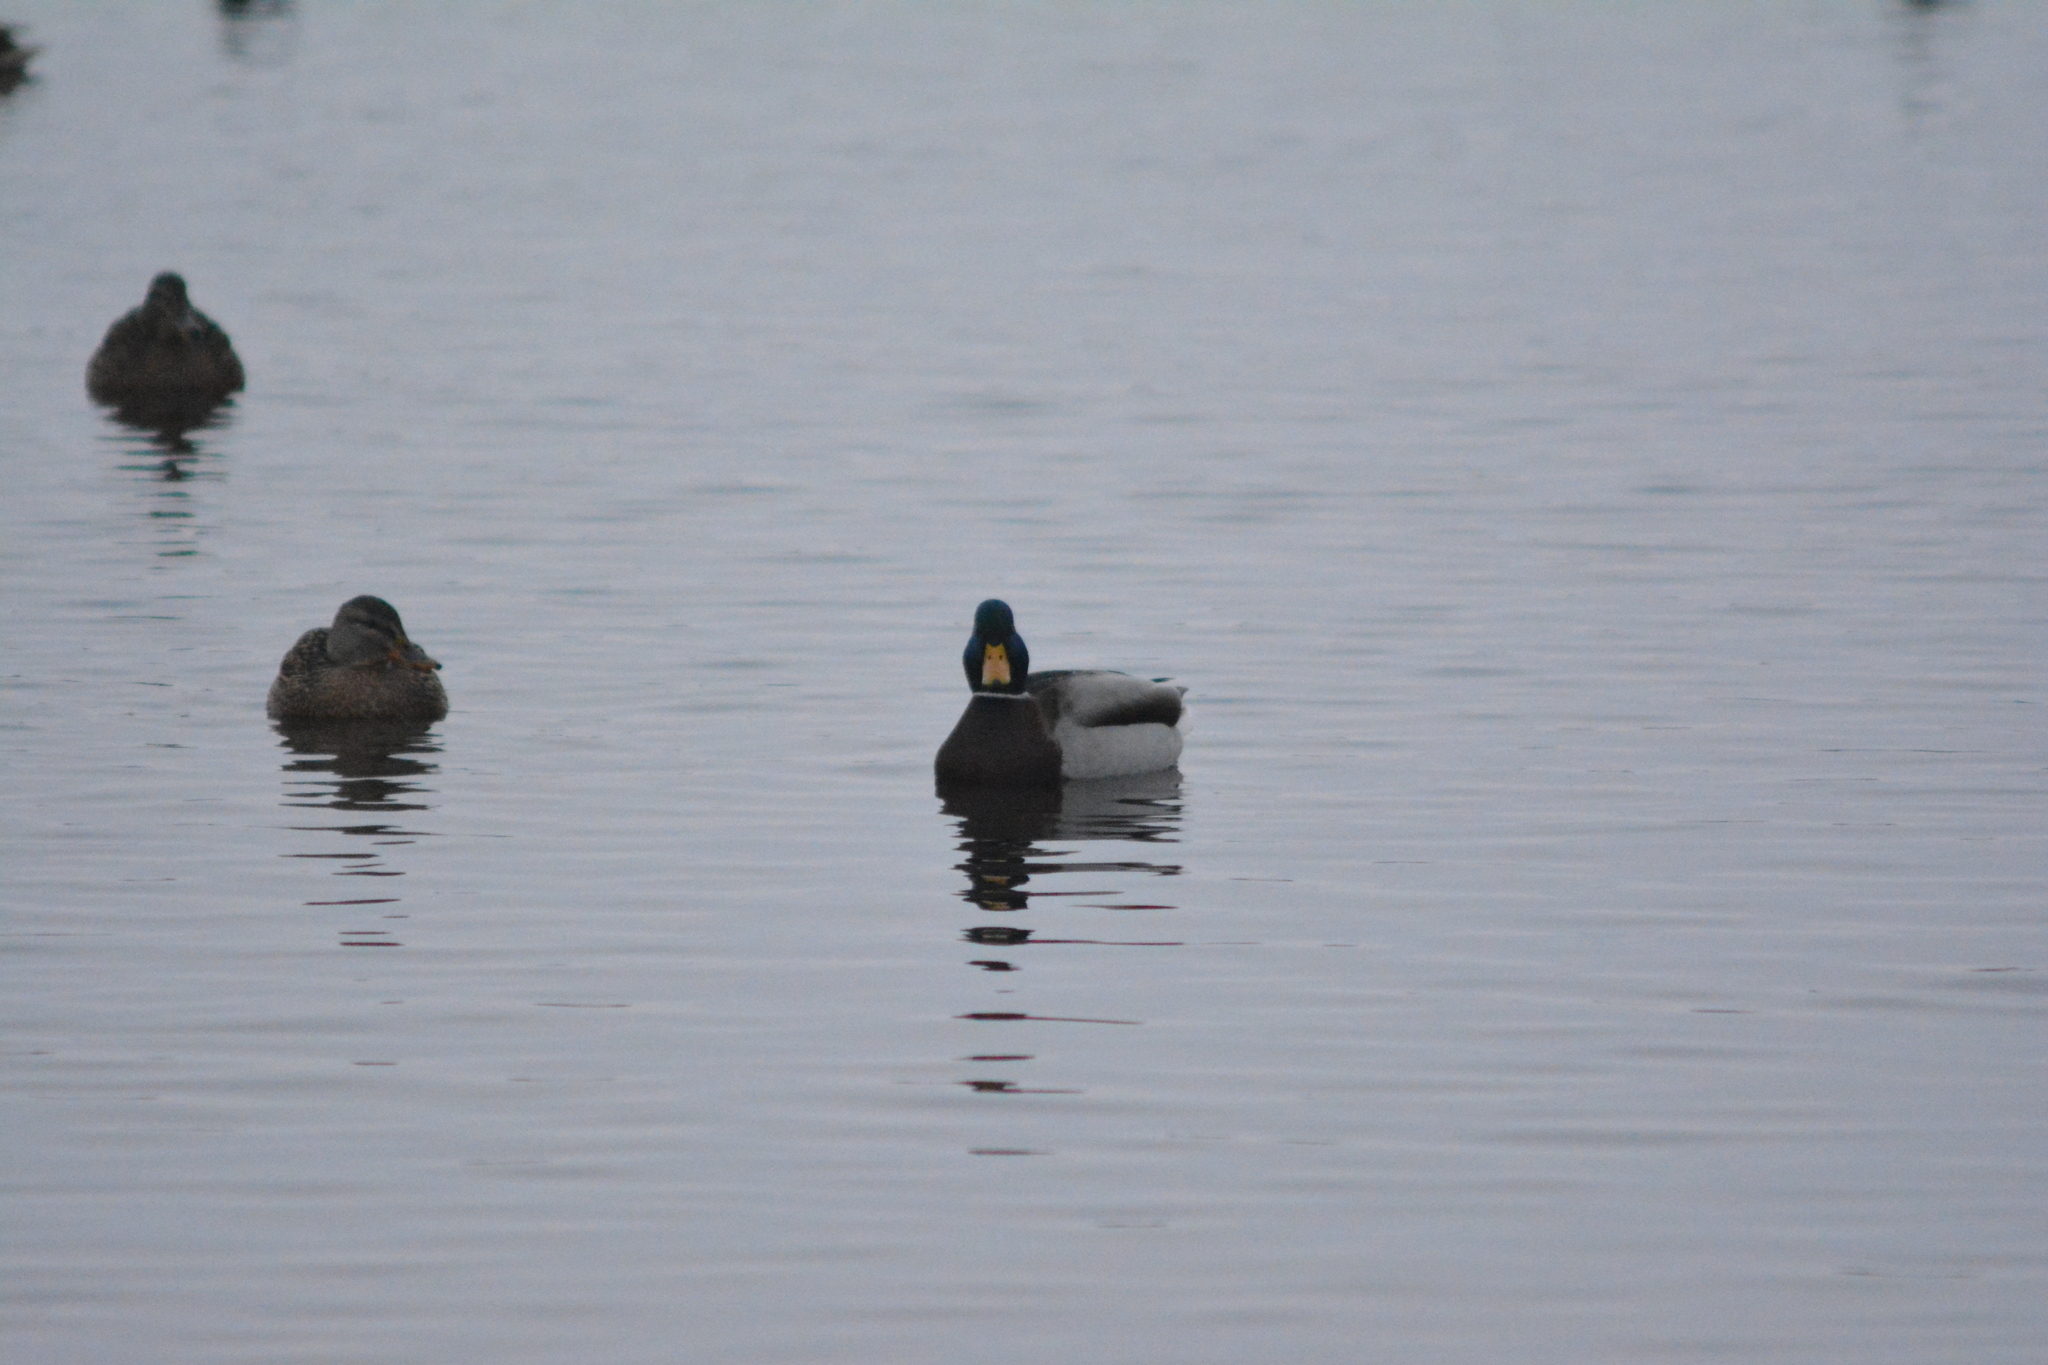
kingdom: Animalia
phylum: Chordata
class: Aves
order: Anseriformes
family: Anatidae
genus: Anas
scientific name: Anas platyrhynchos
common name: Mallard
